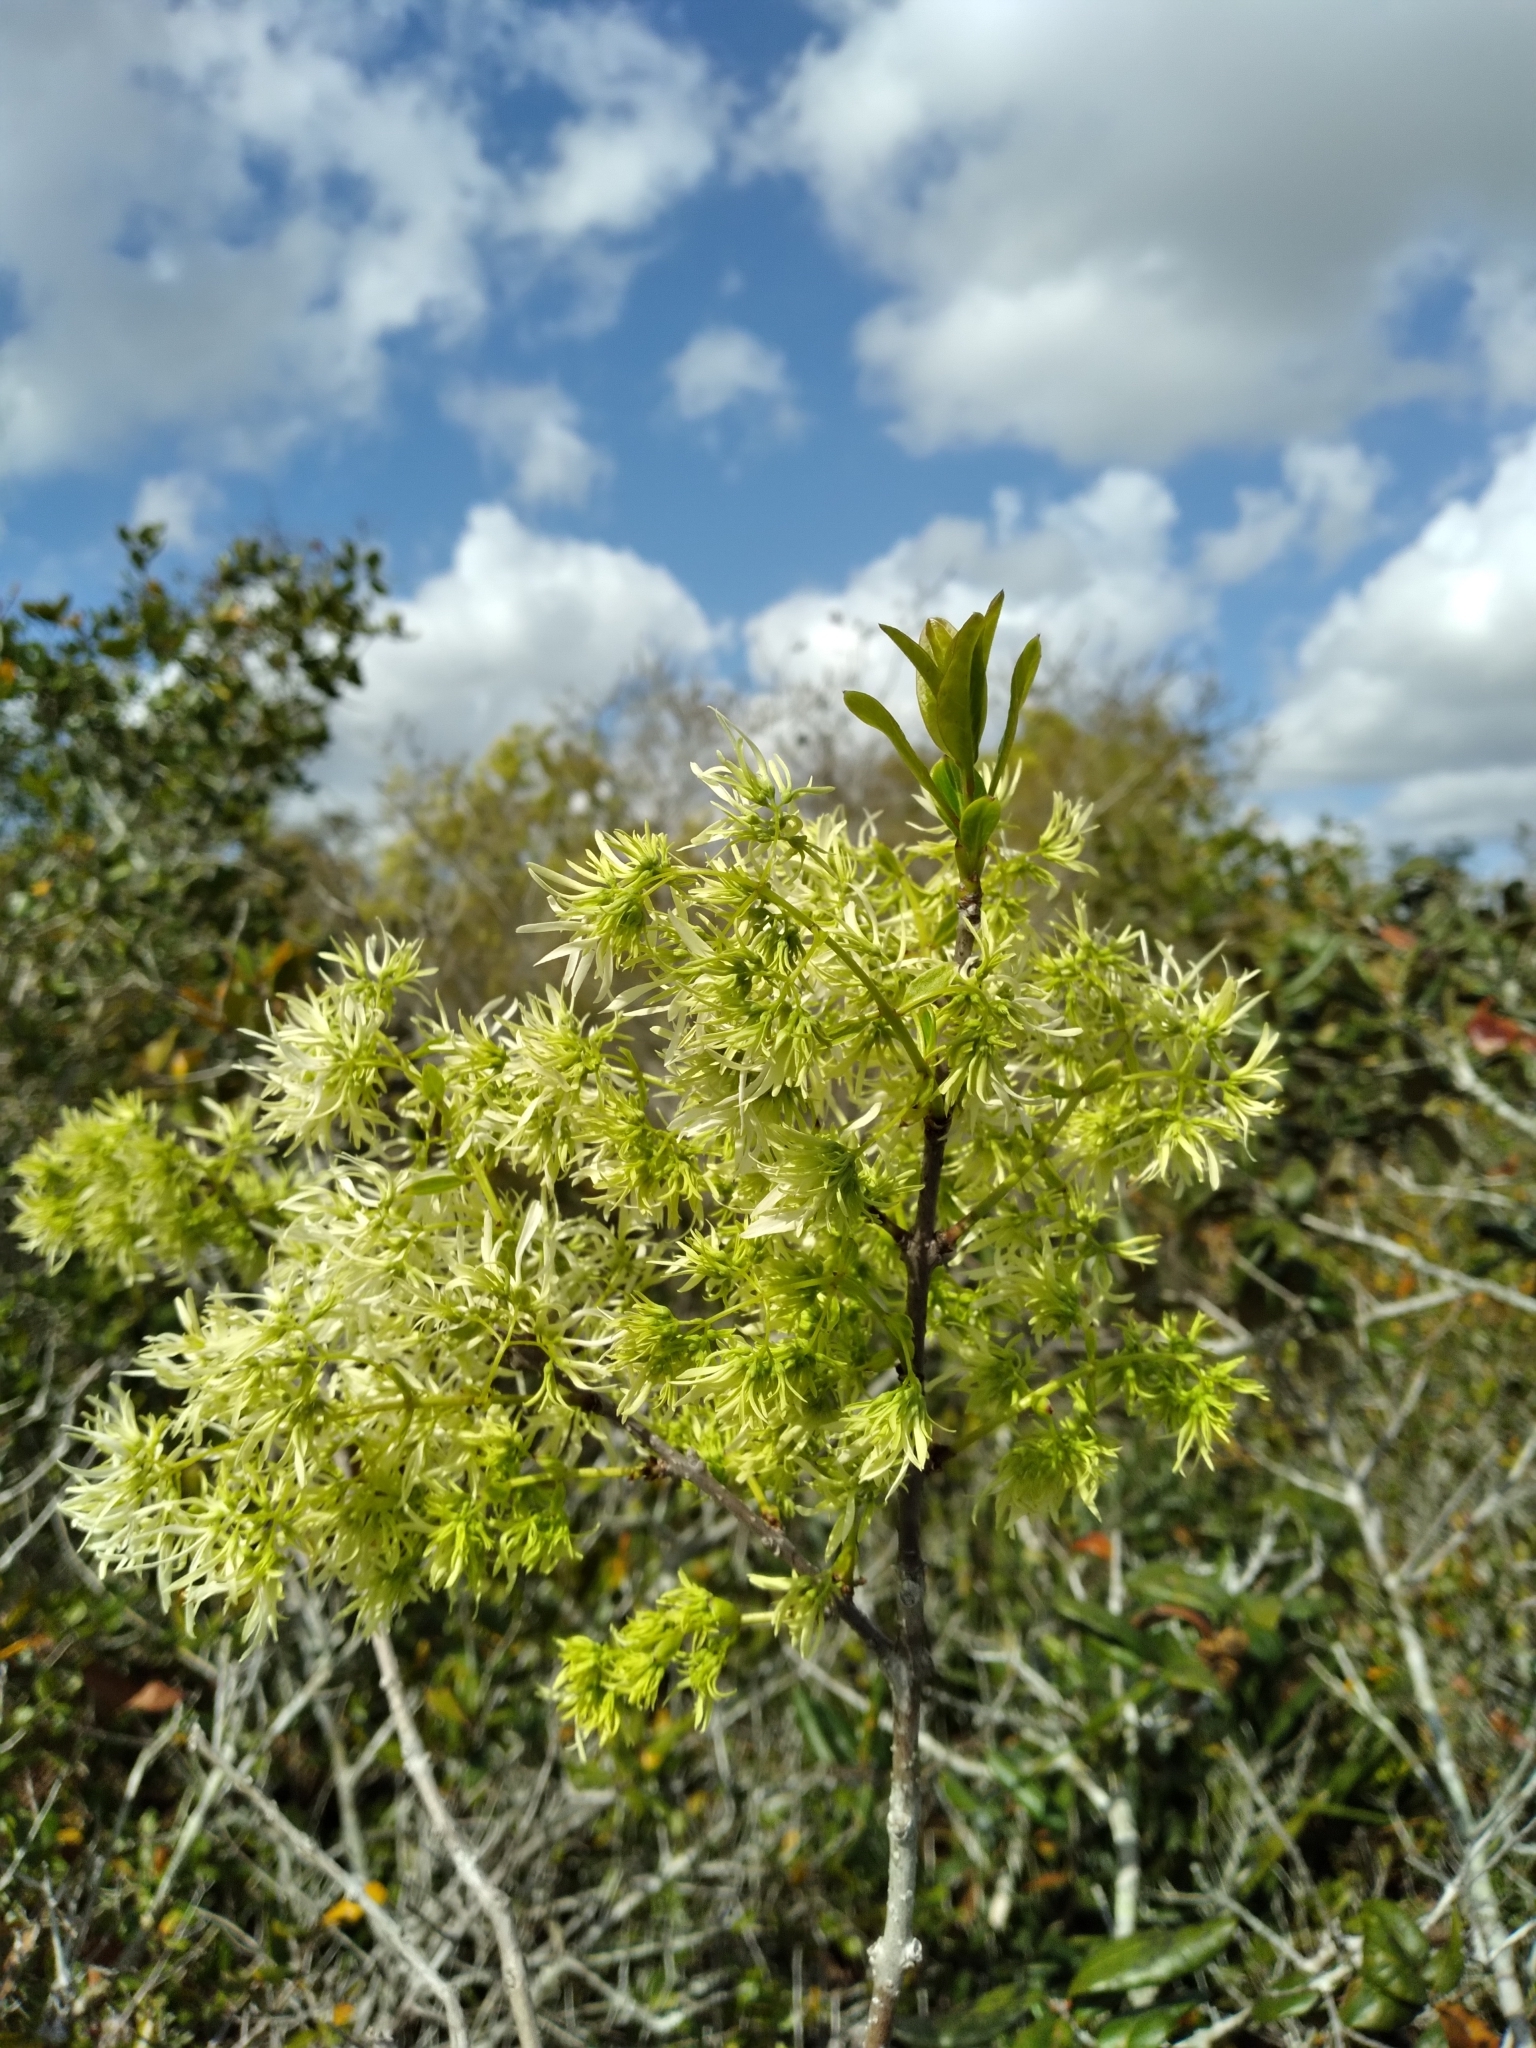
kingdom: Plantae
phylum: Tracheophyta
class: Magnoliopsida
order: Lamiales
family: Oleaceae
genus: Chionanthus
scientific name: Chionanthus pygmaeus
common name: Pygmy fringetree
